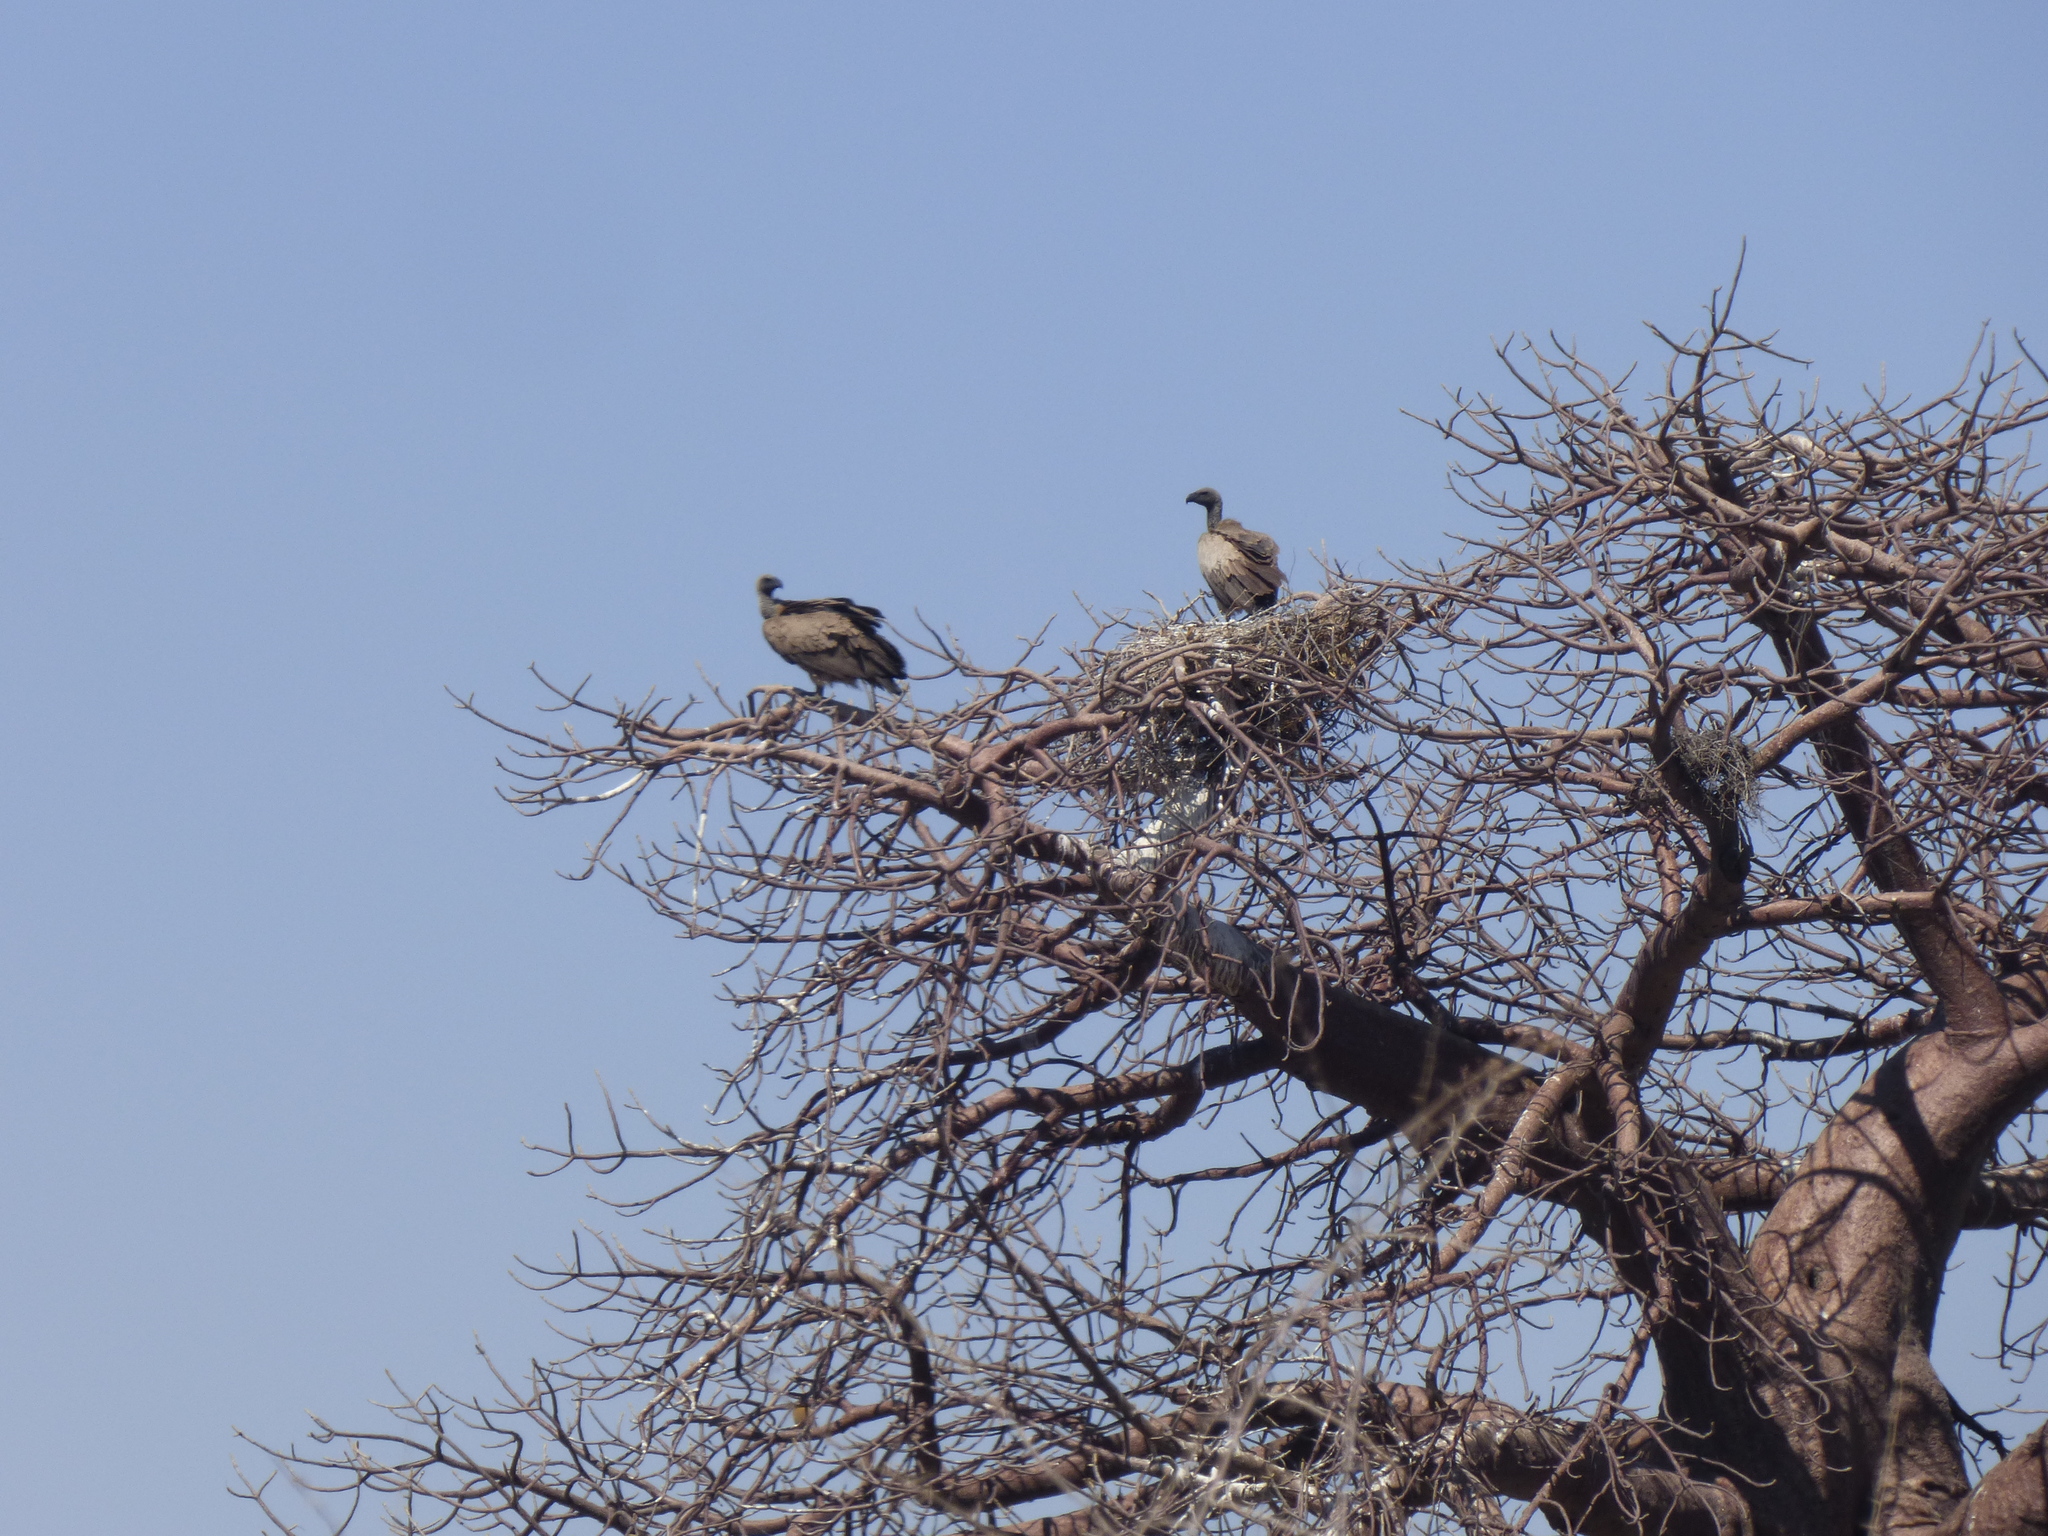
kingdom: Animalia
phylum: Chordata
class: Aves
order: Accipitriformes
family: Accipitridae
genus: Gyps
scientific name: Gyps africanus
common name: White-backed vulture
